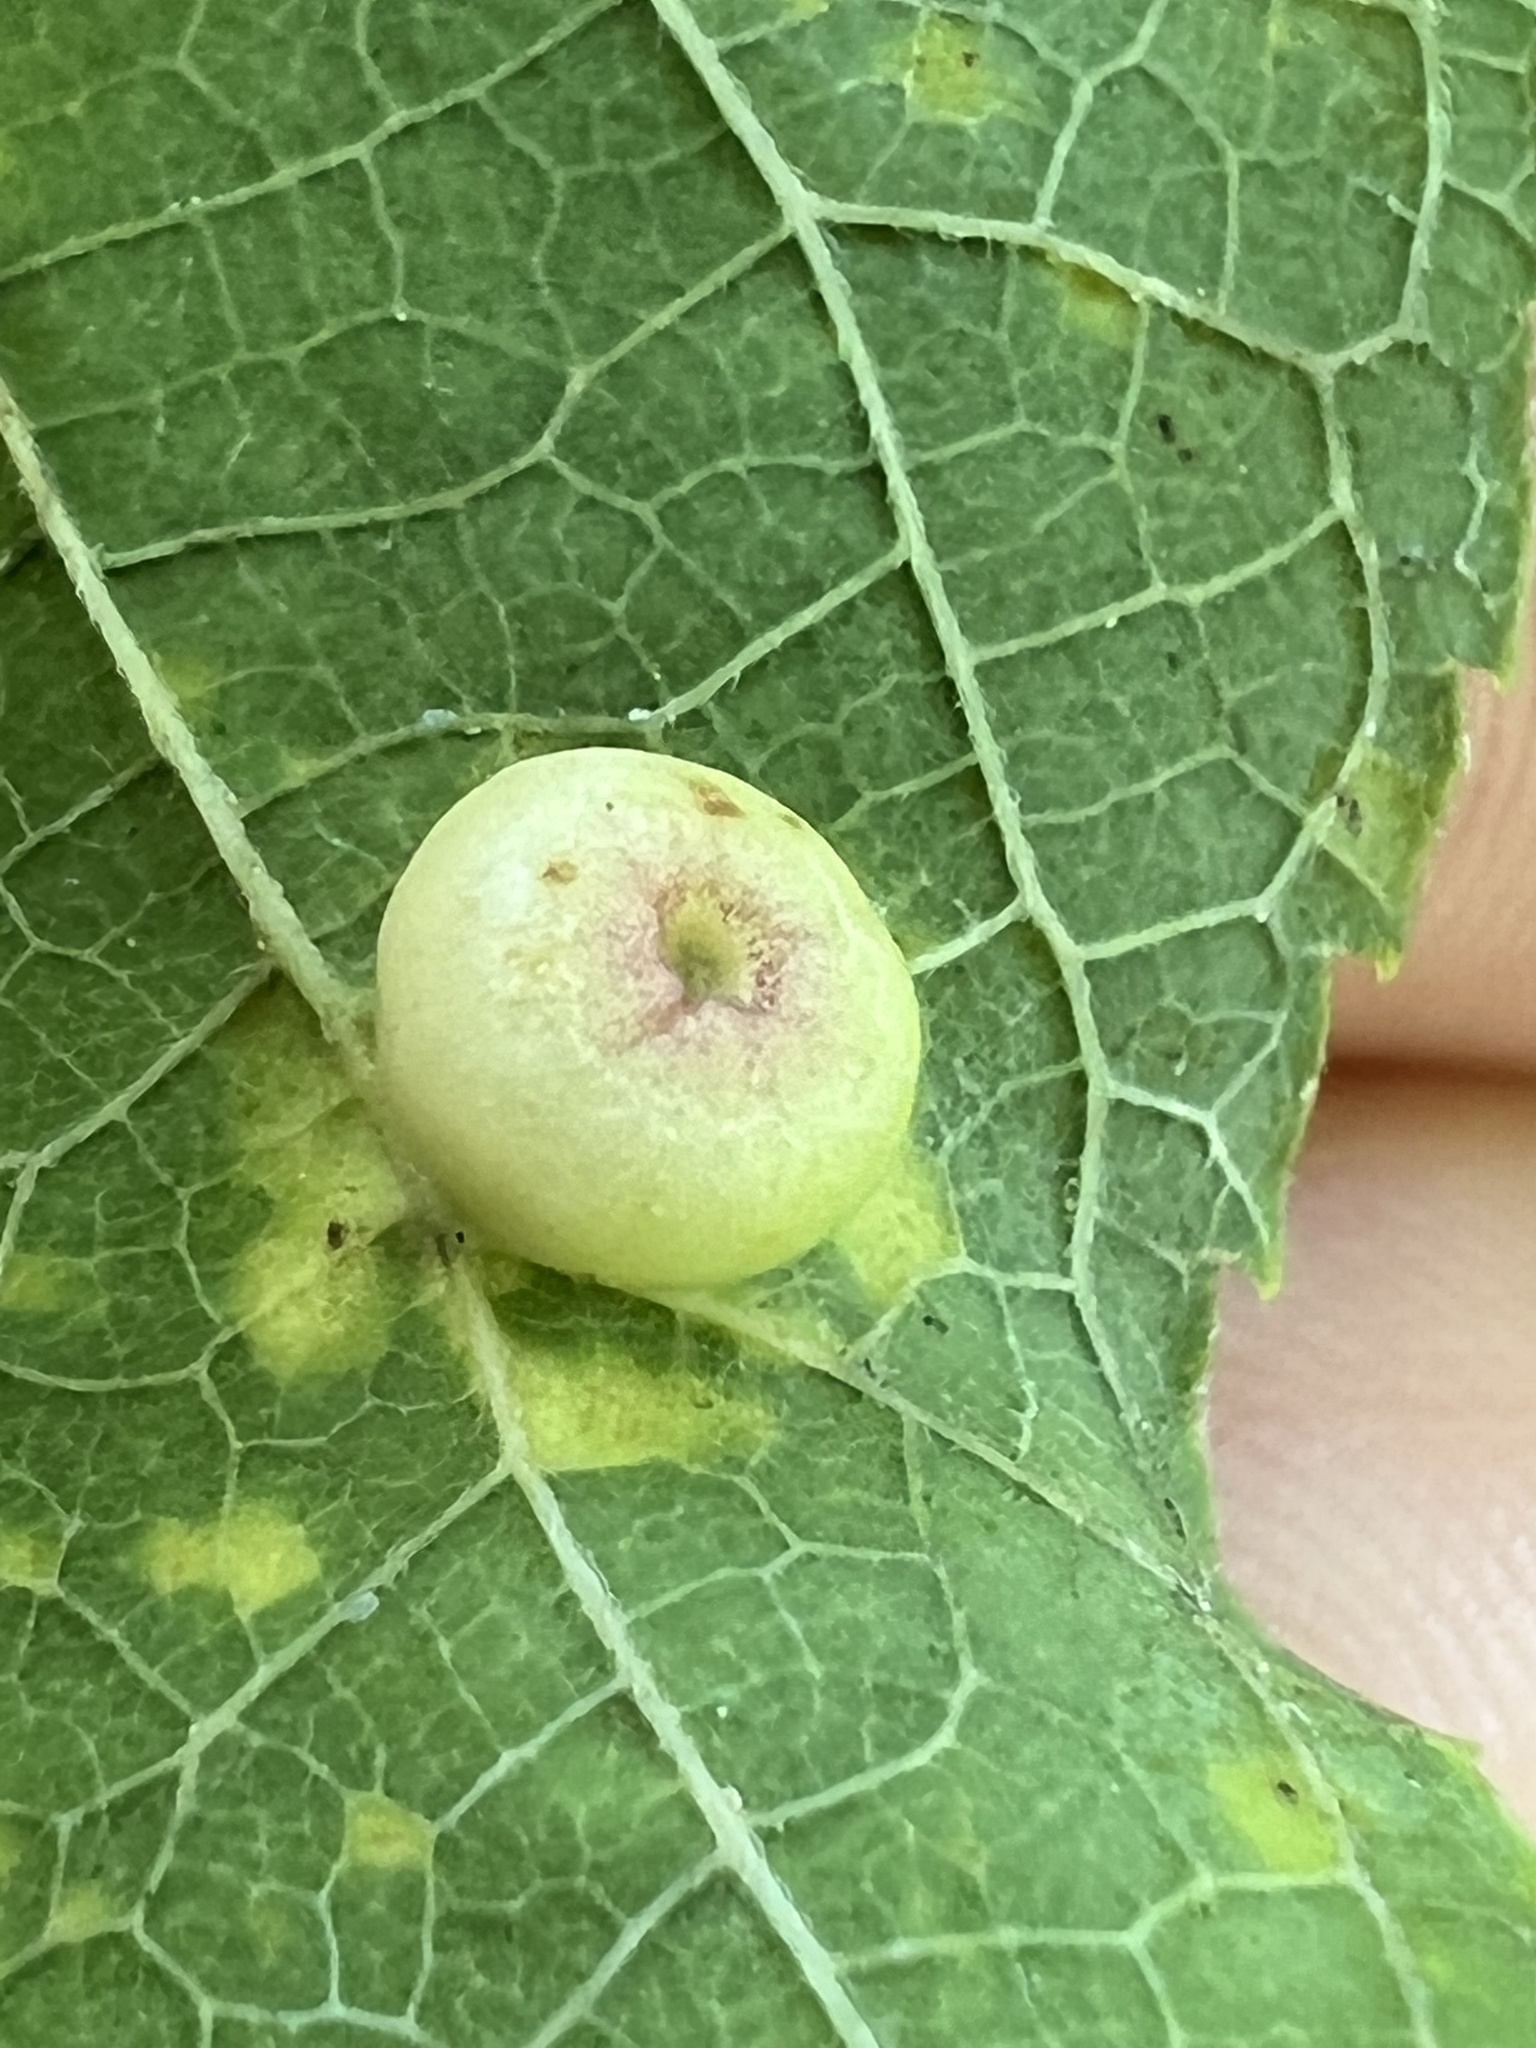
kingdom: Animalia
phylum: Arthropoda
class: Insecta
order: Hemiptera
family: Aphalaridae
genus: Pachypsylla
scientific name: Pachypsylla celtidismamma
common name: Hackberry nipplegall psyllid
